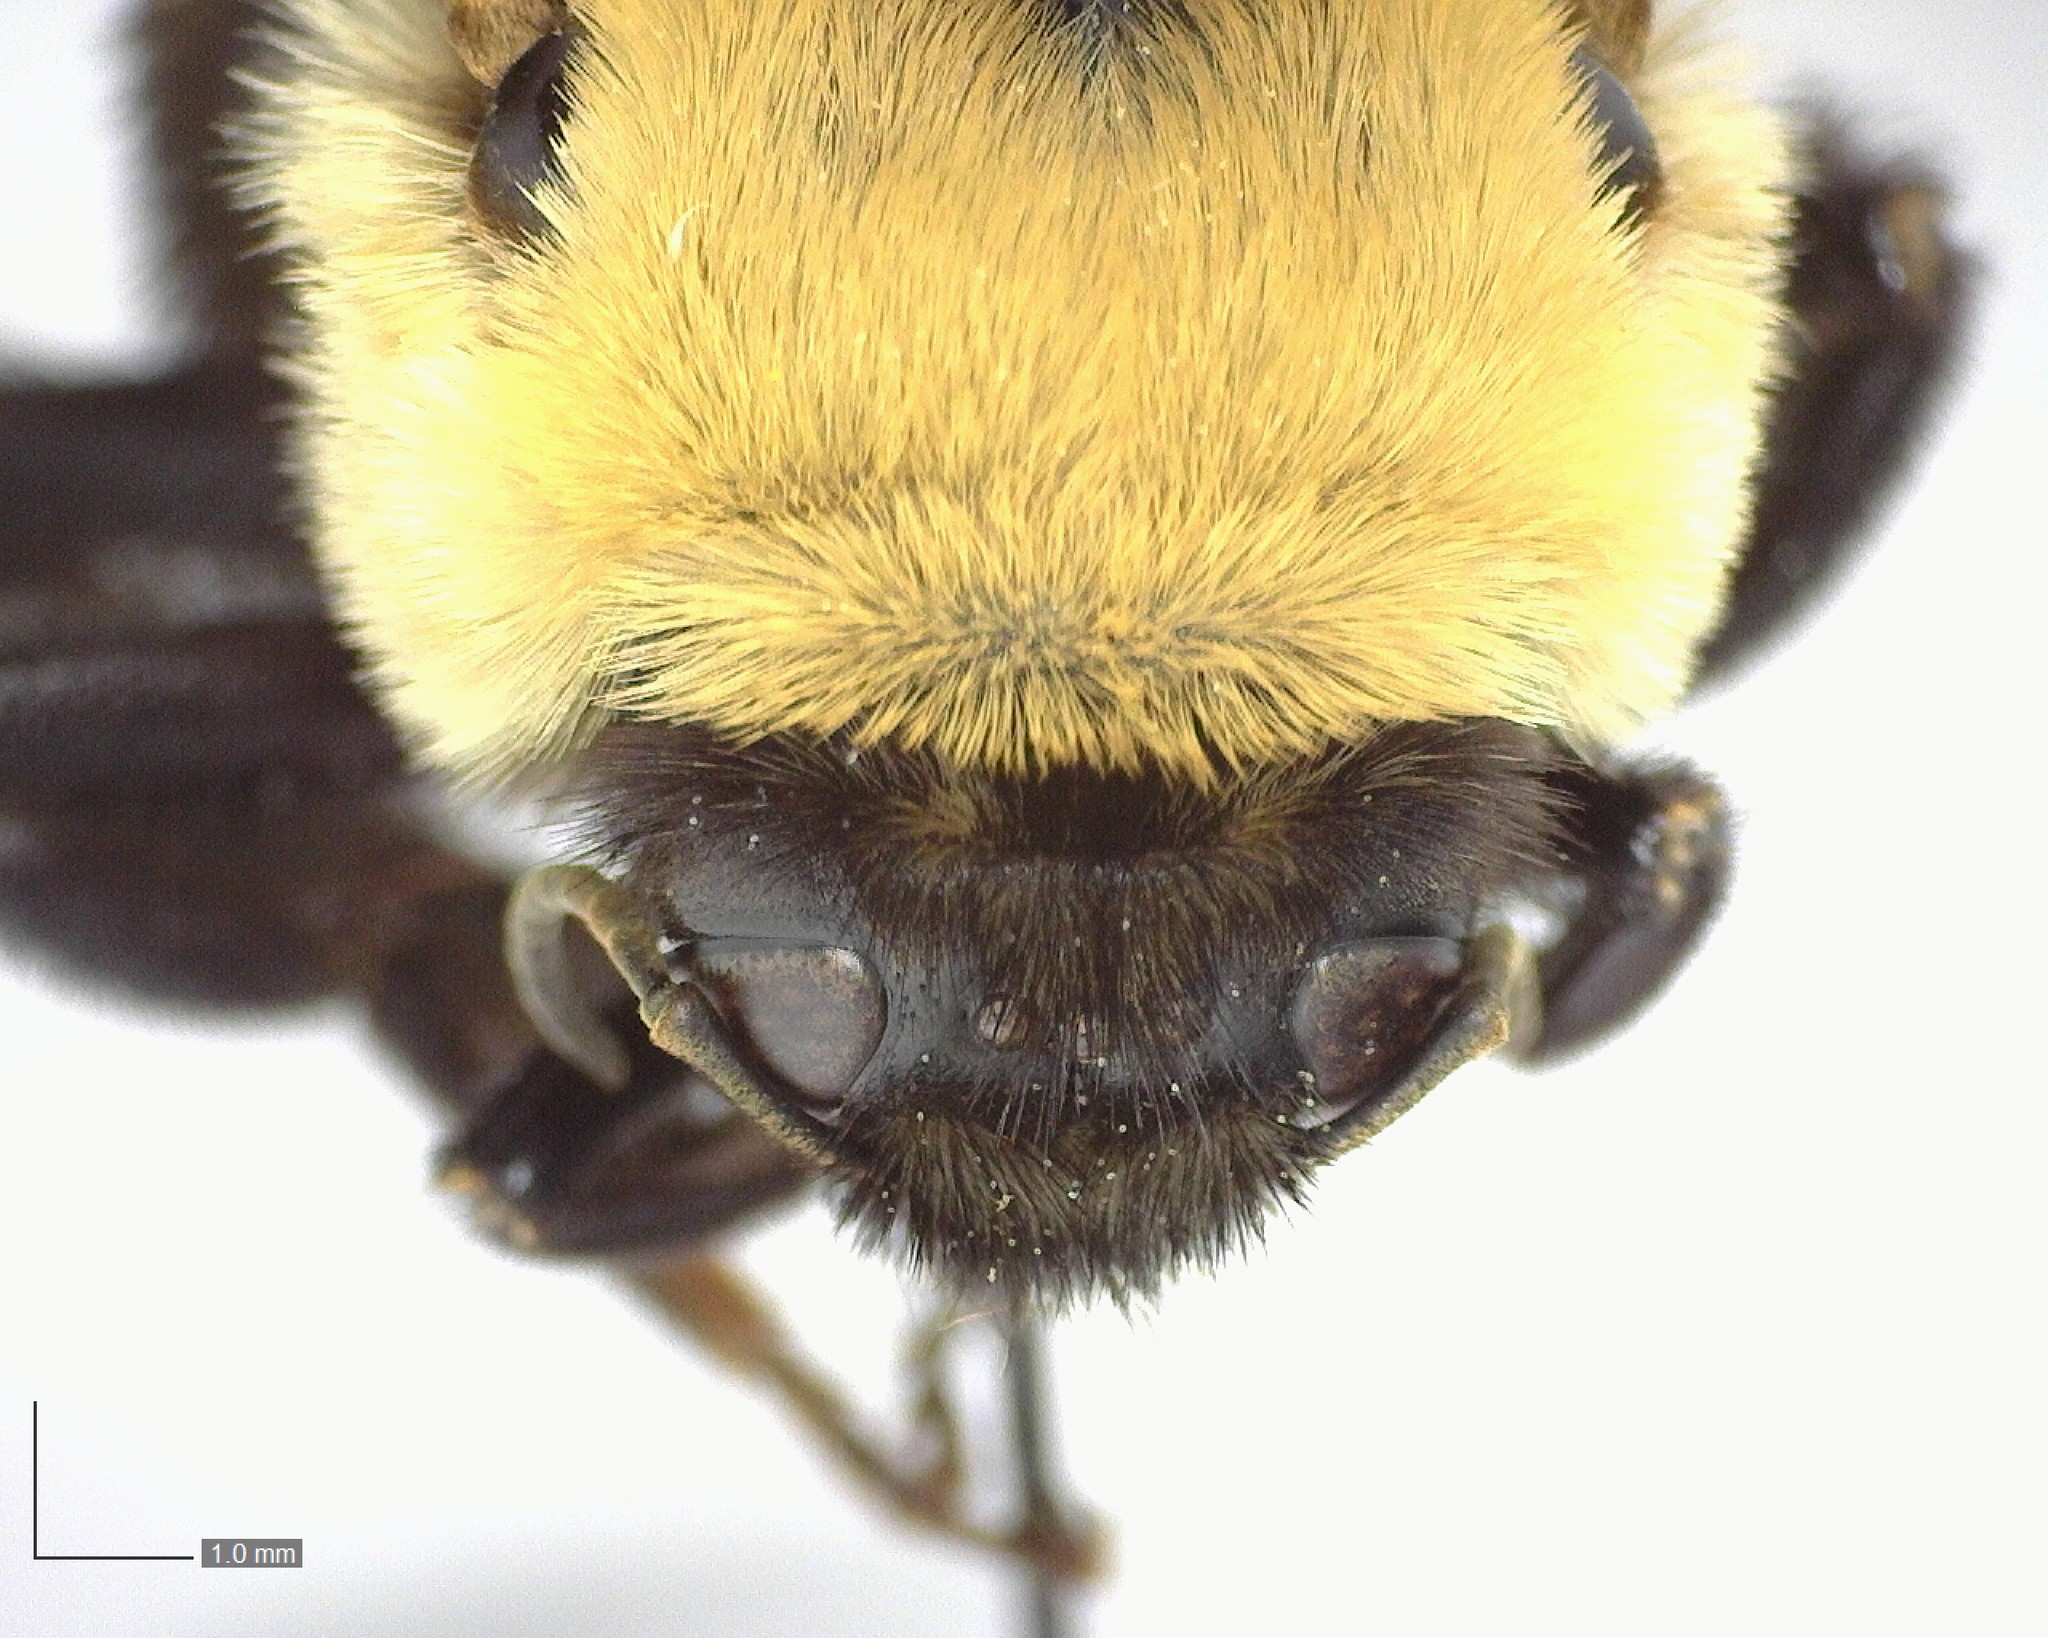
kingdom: Animalia
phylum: Arthropoda
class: Insecta
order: Hymenoptera
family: Apidae
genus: Bombus
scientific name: Bombus griseocollis
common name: Brown-belted bumble bee
